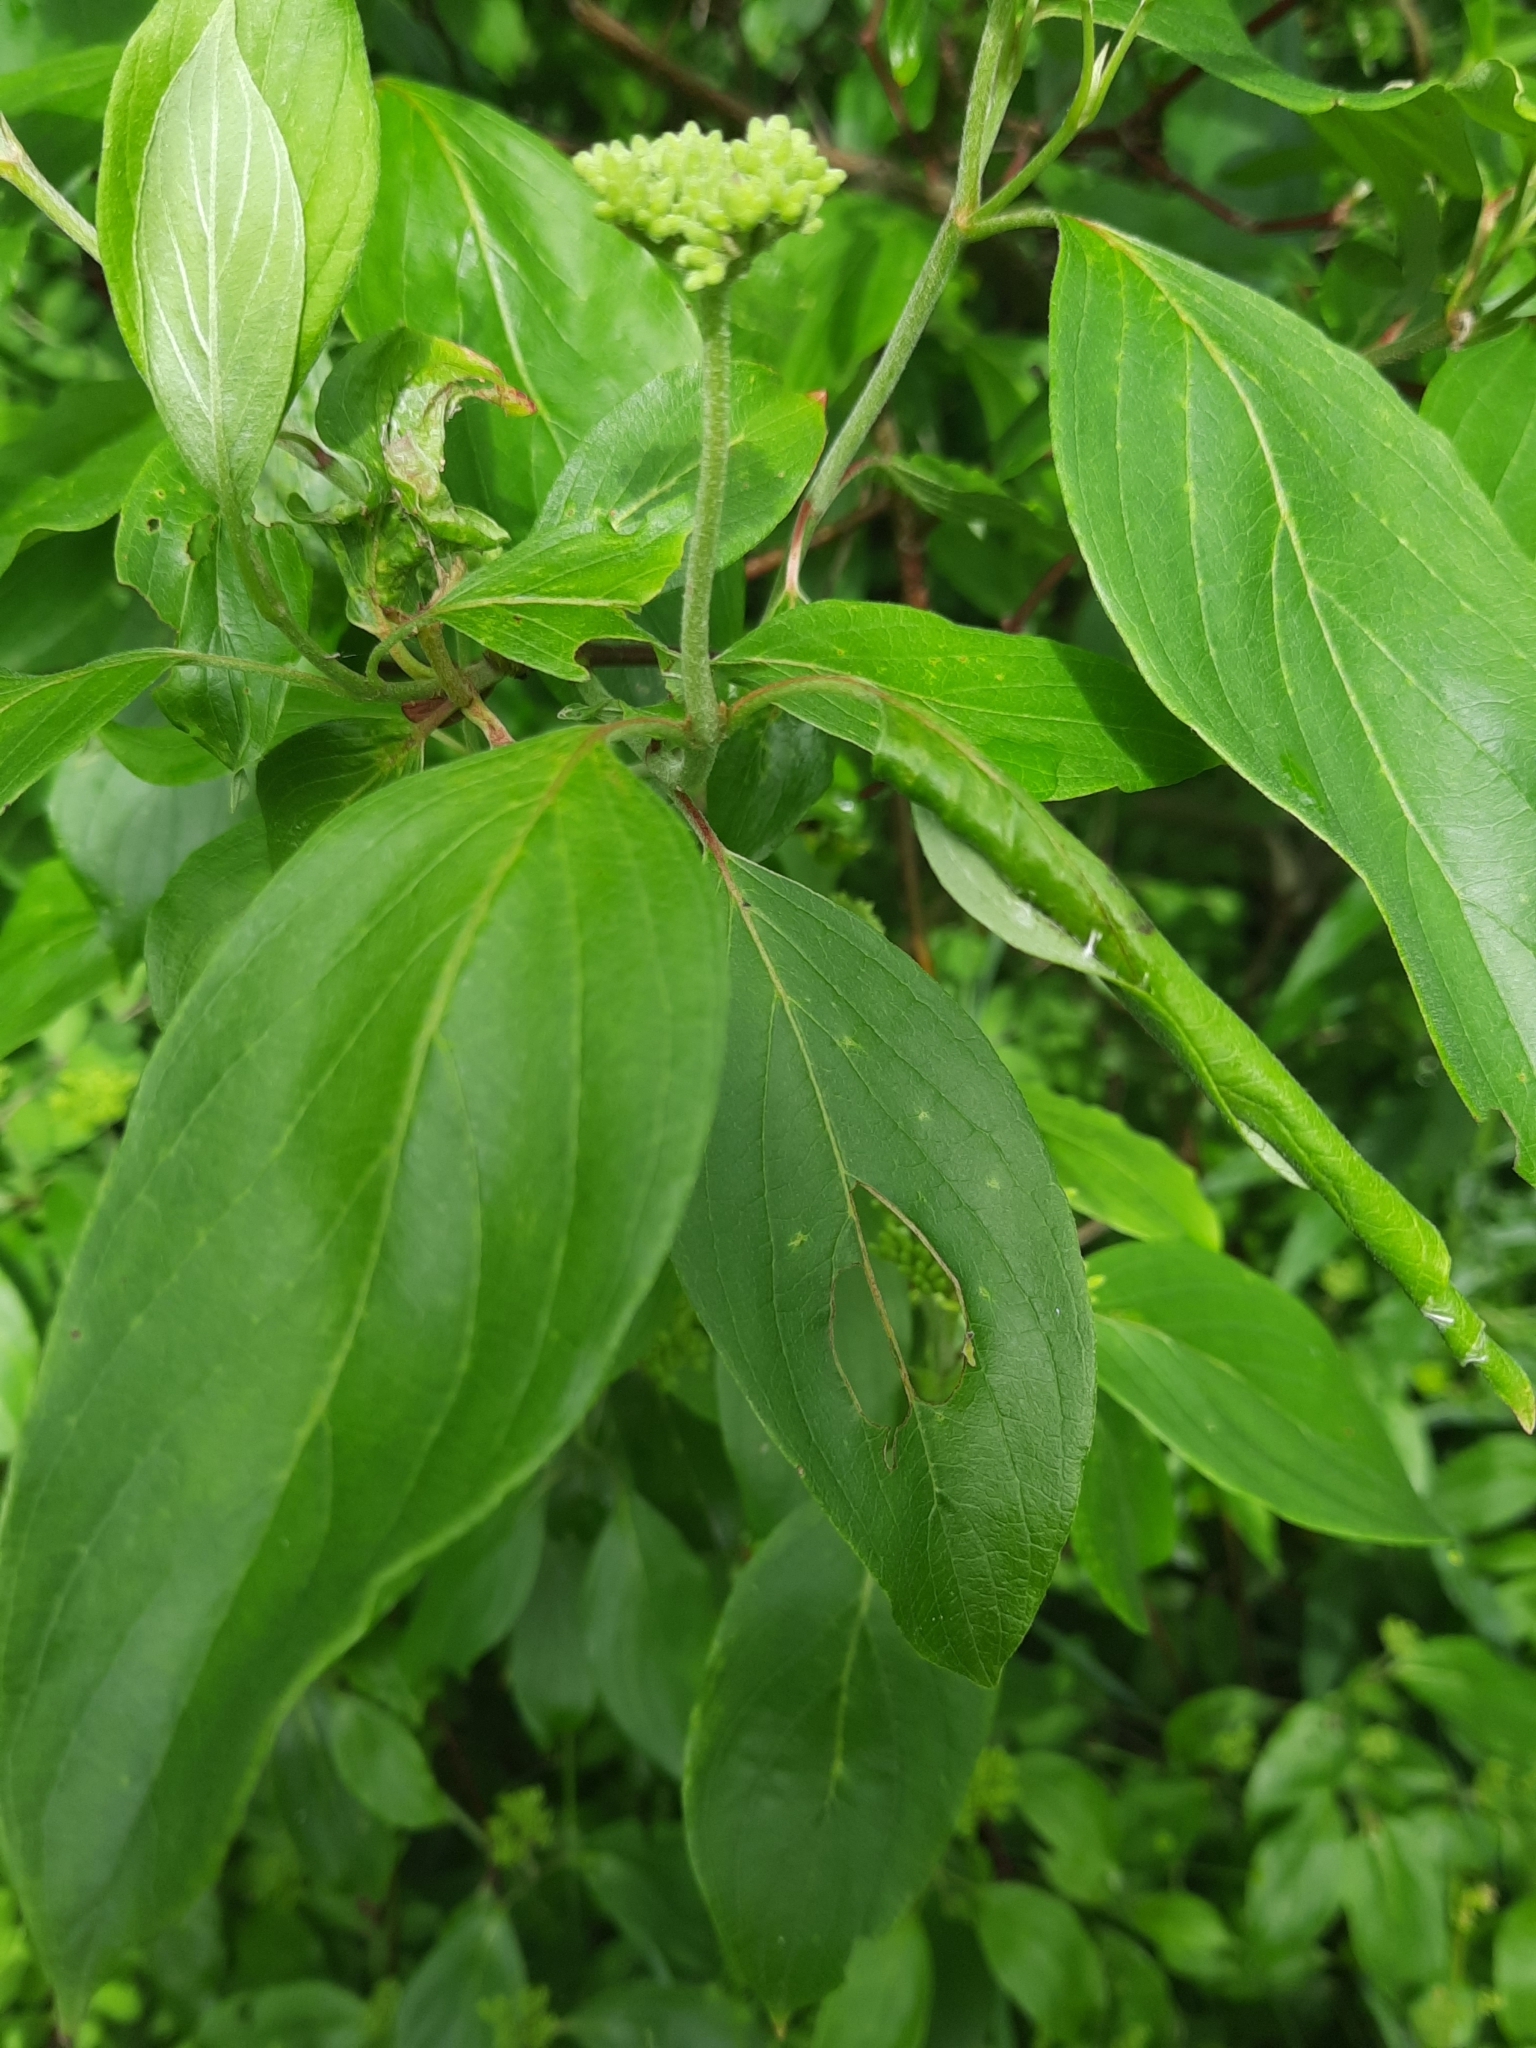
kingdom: Plantae
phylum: Tracheophyta
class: Magnoliopsida
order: Cornales
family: Cornaceae
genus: Cornus
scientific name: Cornus amomum
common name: Silky dogwood
